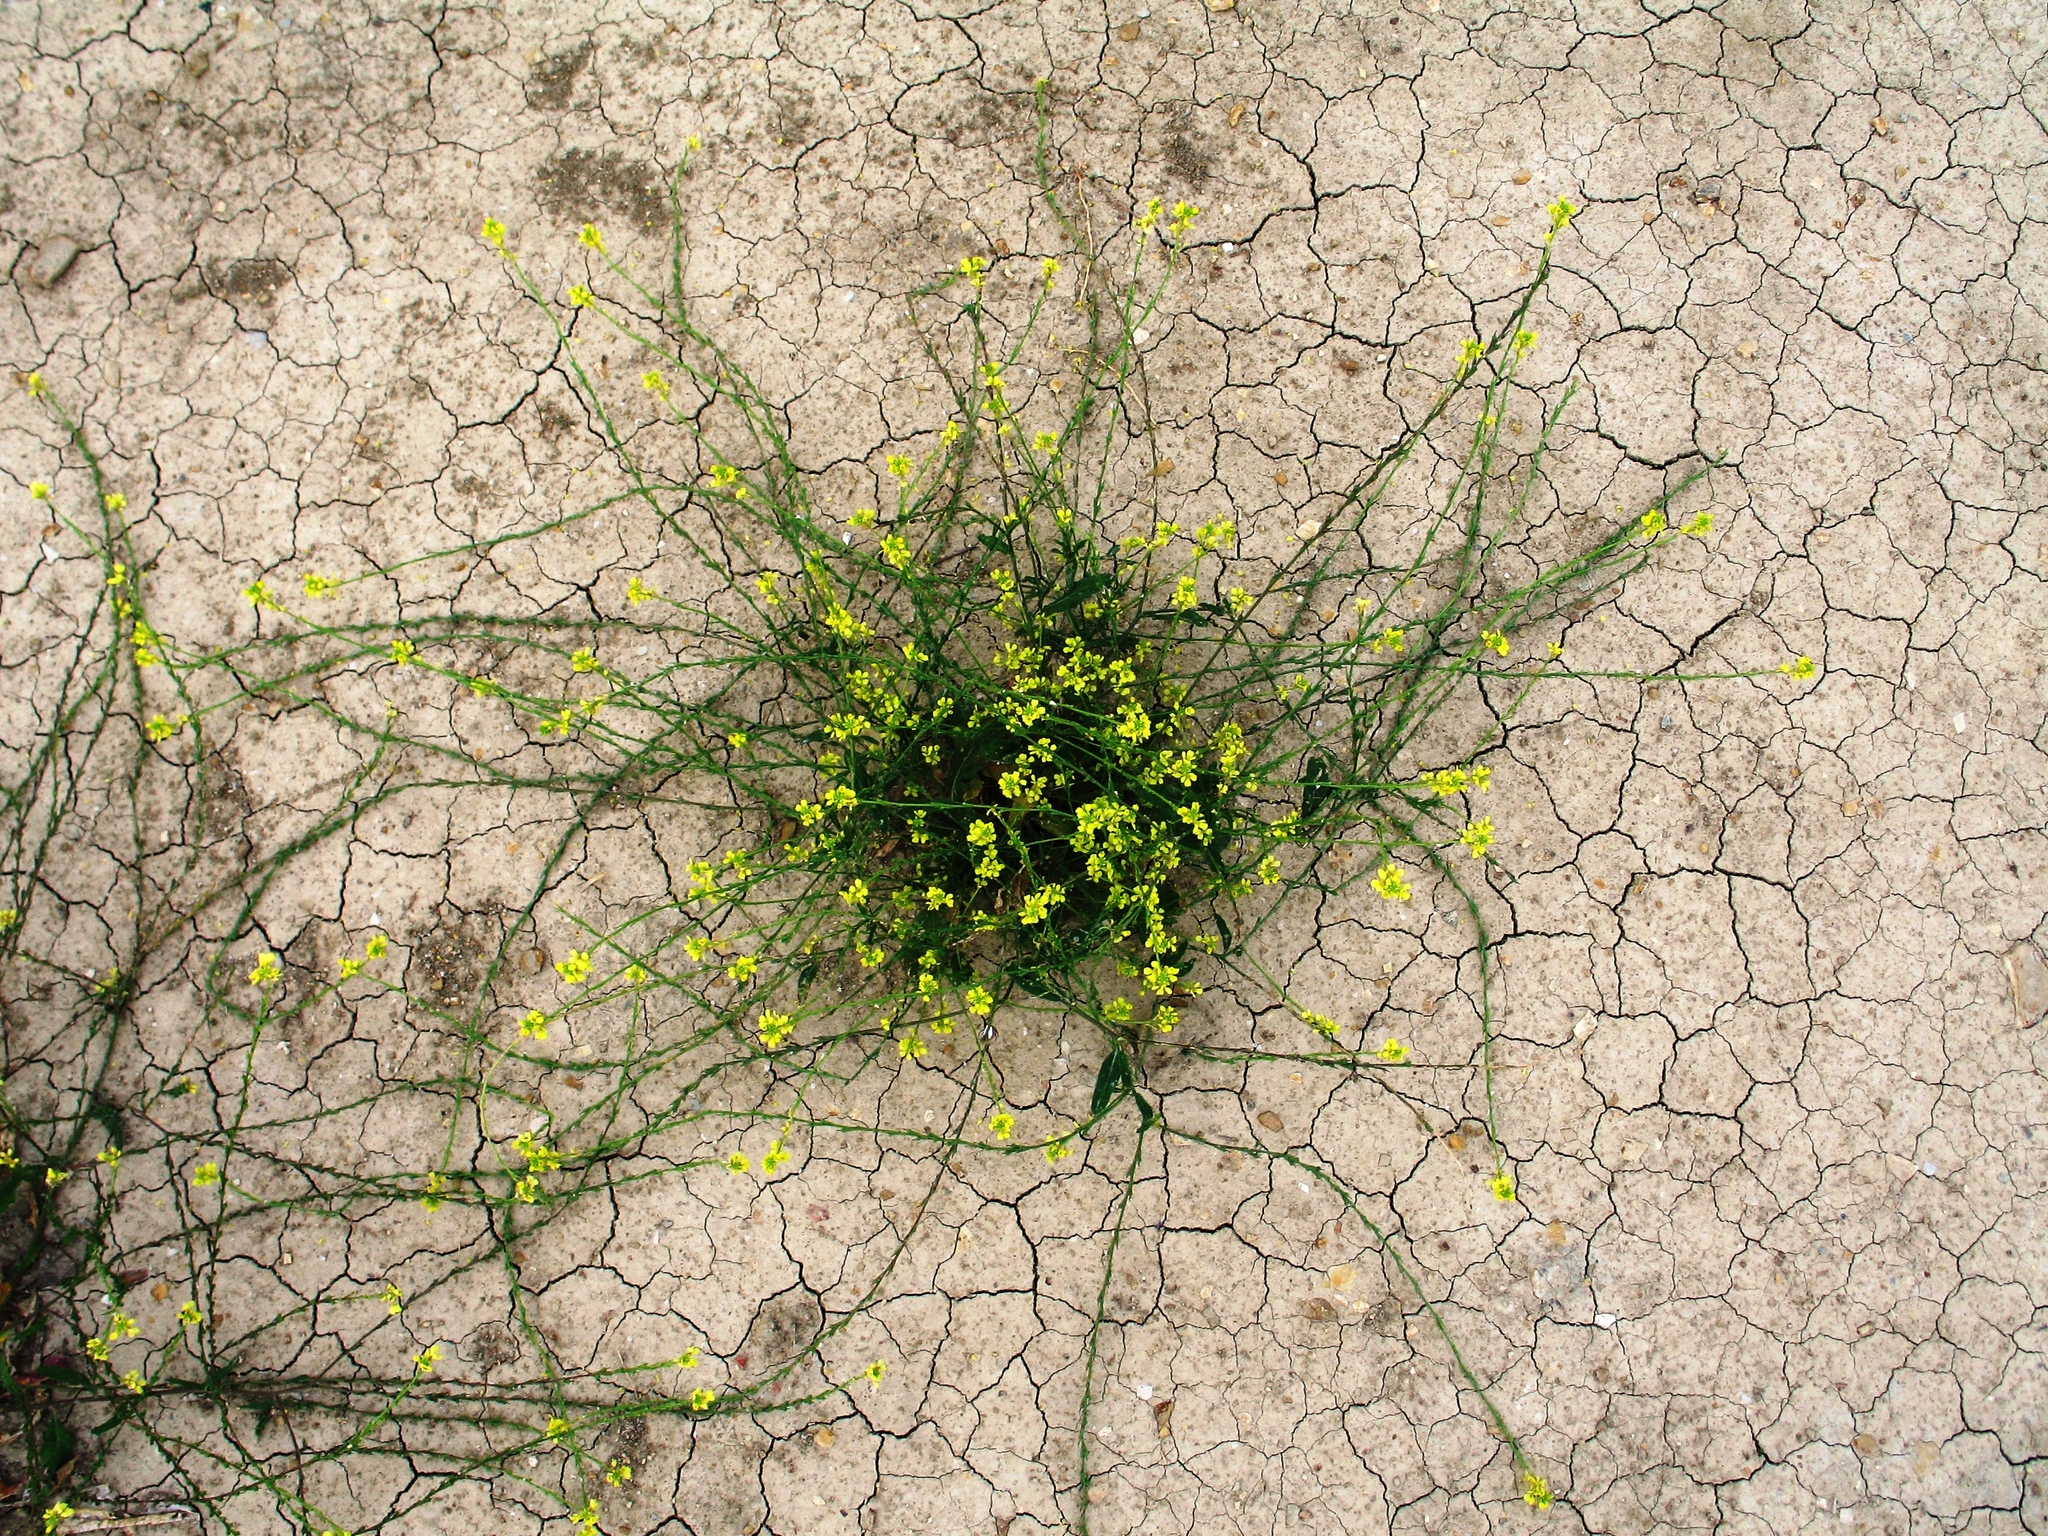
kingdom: Plantae
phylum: Tracheophyta
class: Magnoliopsida
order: Brassicales
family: Brassicaceae
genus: Rapistrum
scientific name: Rapistrum rugosum
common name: Annual bastardcabbage
